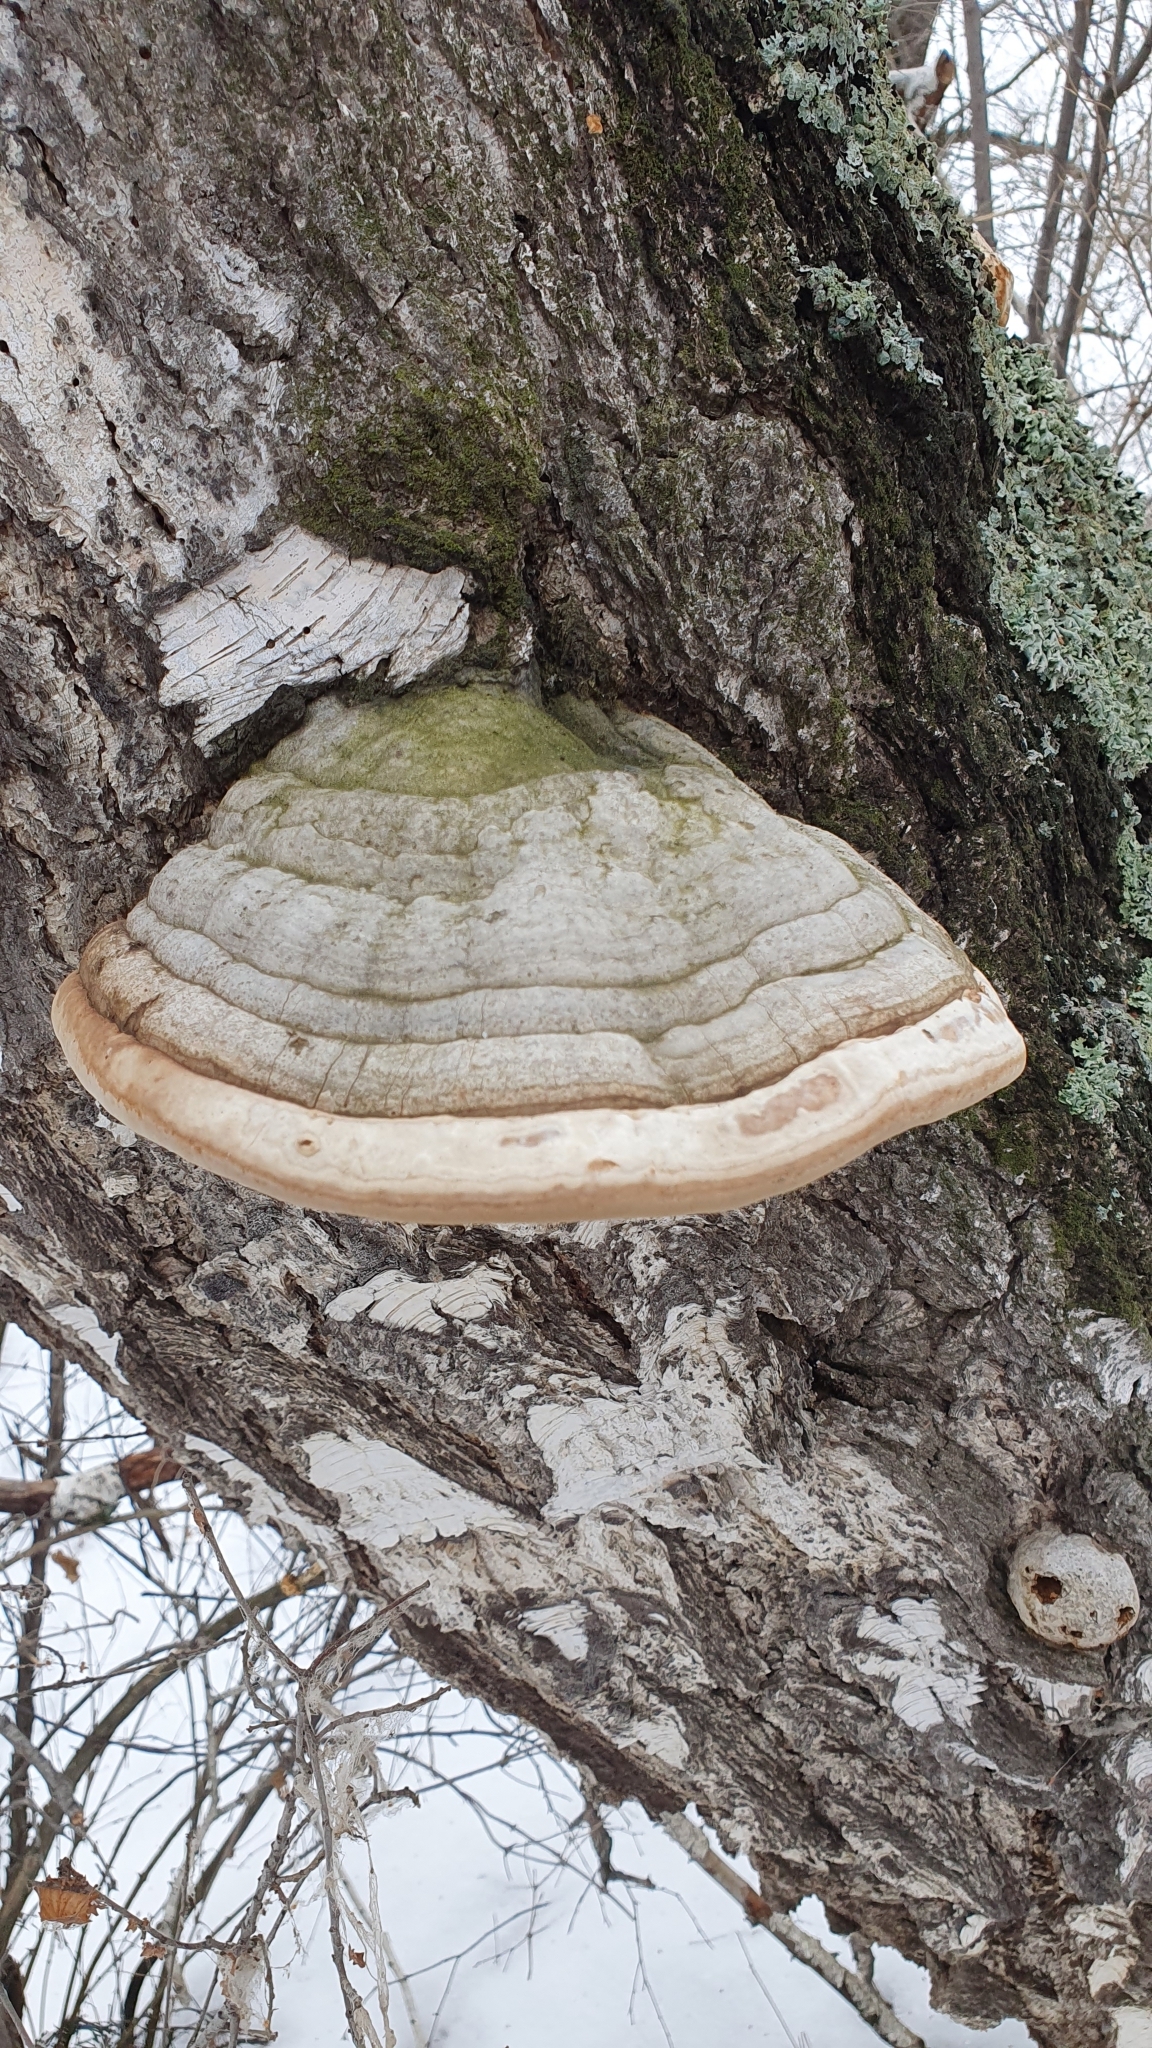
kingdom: Fungi
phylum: Basidiomycota
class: Agaricomycetes
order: Polyporales
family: Polyporaceae
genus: Fomes
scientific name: Fomes fomentarius
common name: Hoof fungus
